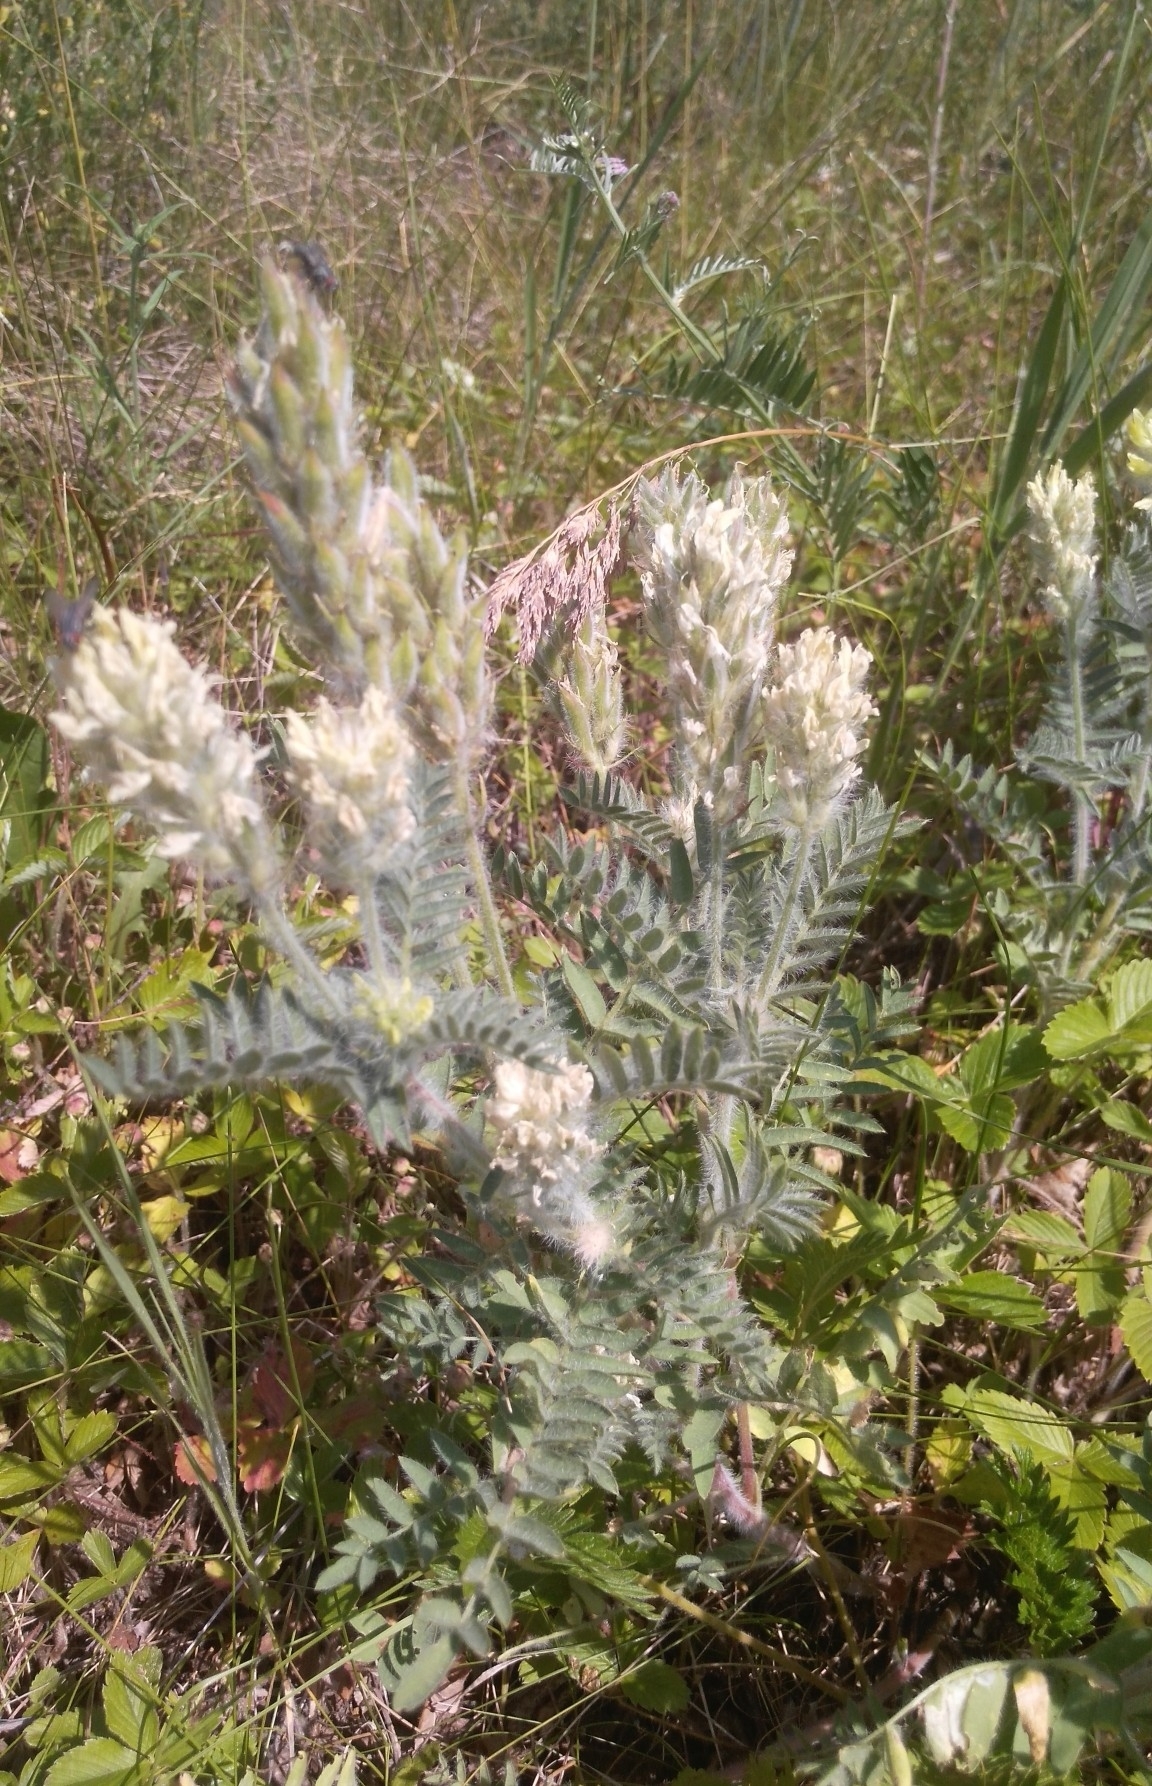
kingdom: Plantae
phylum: Tracheophyta
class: Magnoliopsida
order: Fabales
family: Fabaceae
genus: Oxytropis
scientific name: Oxytropis pilosa
